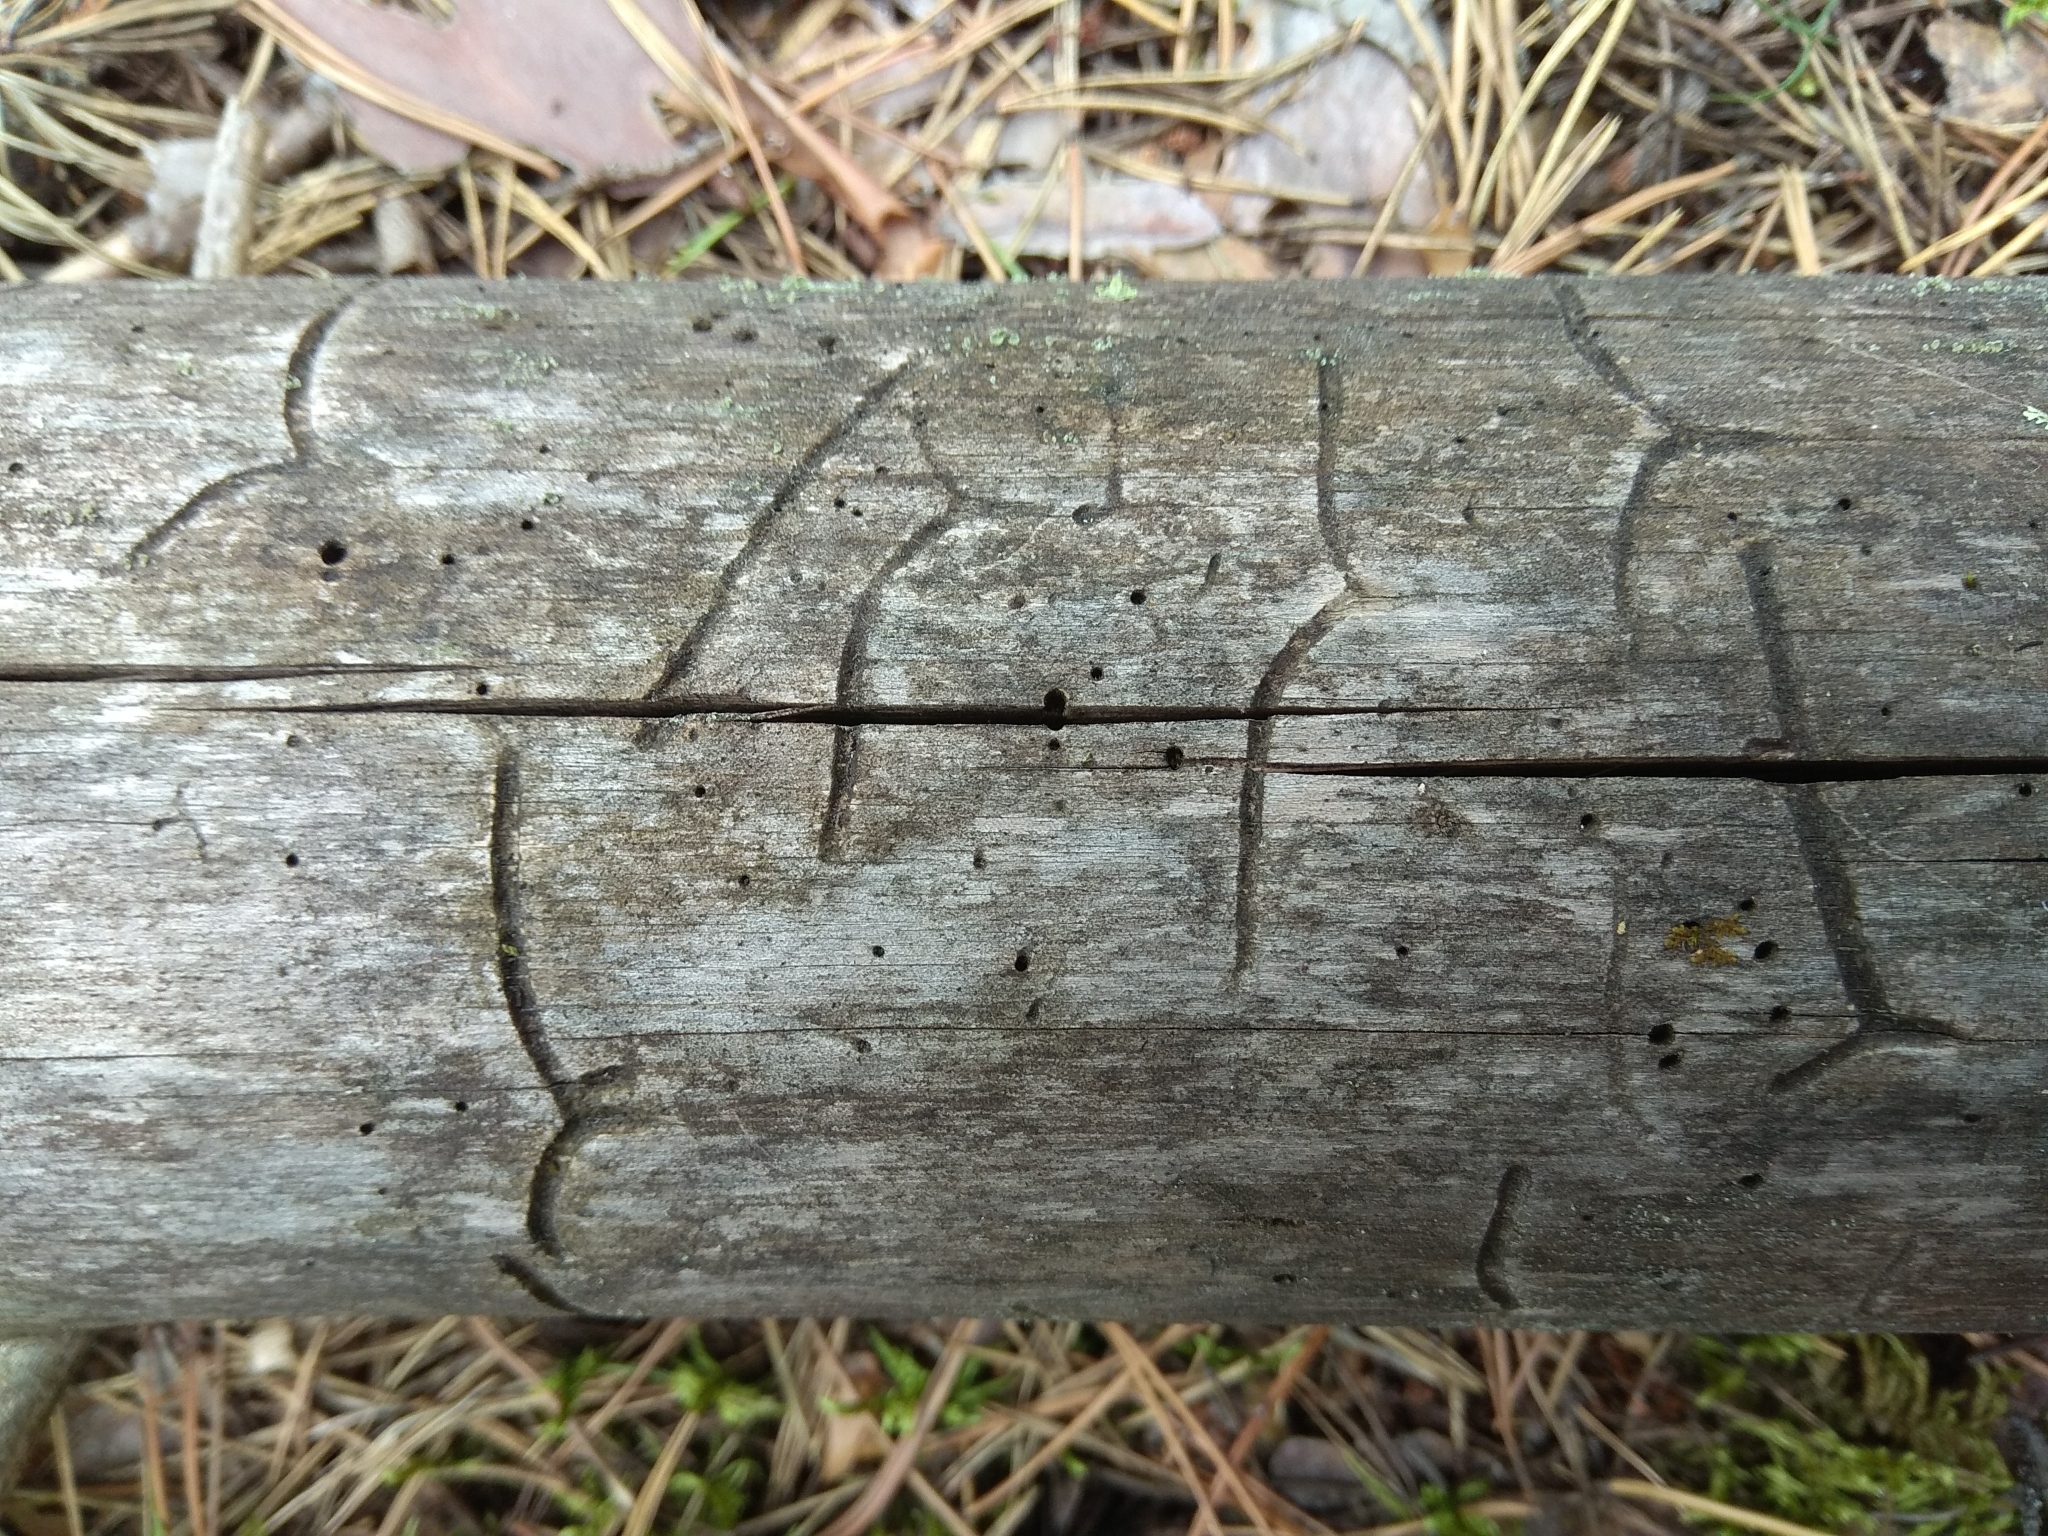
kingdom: Animalia
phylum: Arthropoda
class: Insecta
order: Coleoptera
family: Curculionidae
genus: Tomicus
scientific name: Tomicus minor
